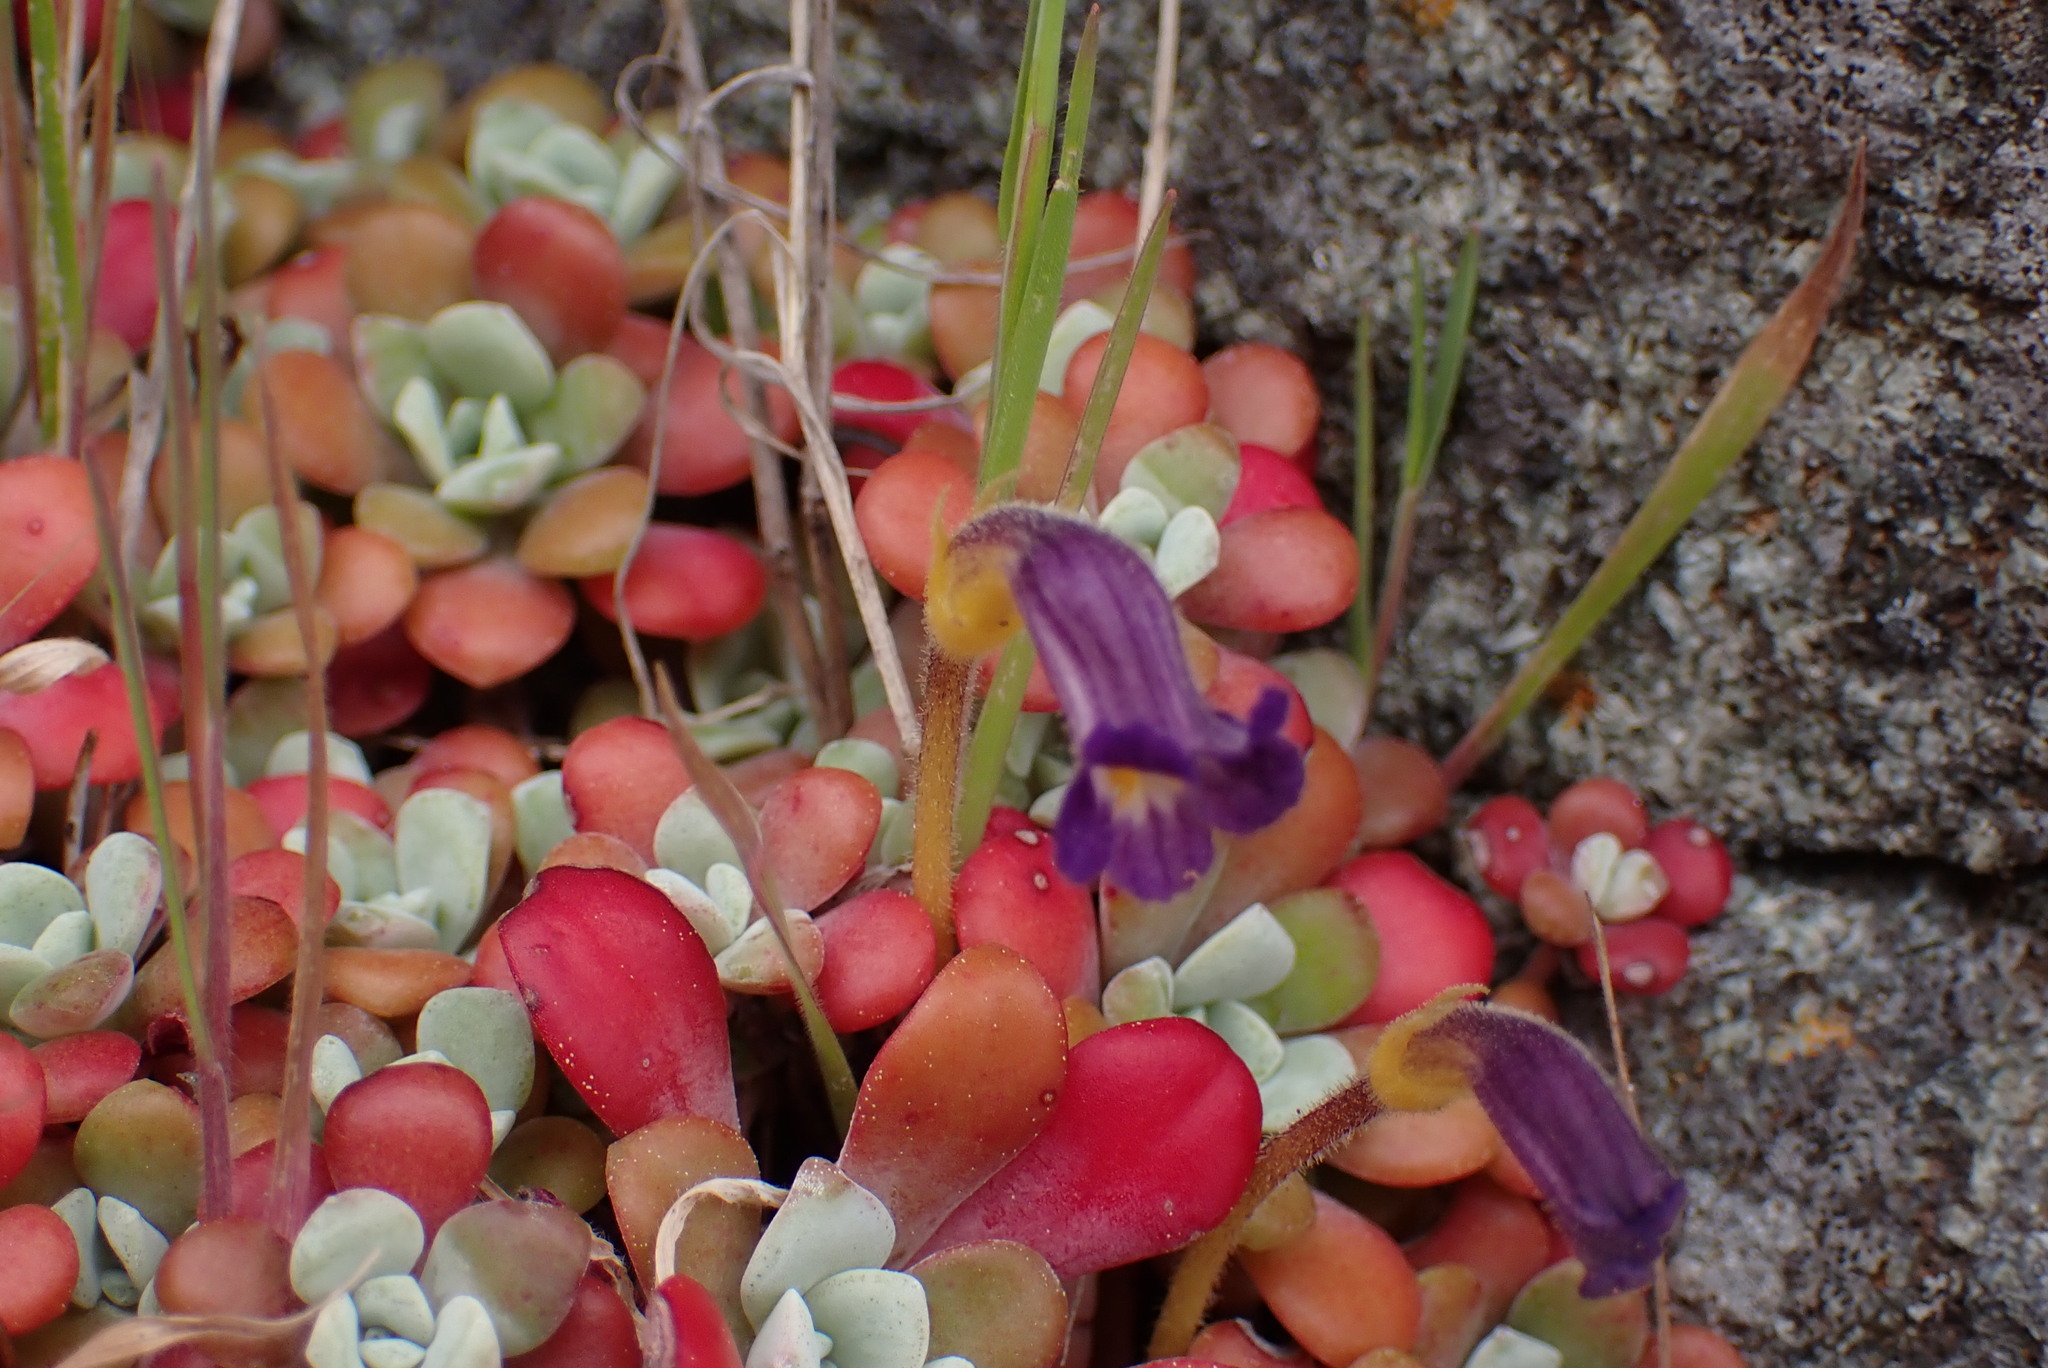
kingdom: Plantae
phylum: Tracheophyta
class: Magnoliopsida
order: Lamiales
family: Orobanchaceae
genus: Aphyllon
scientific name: Aphyllon uniflorum
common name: One-flowered broomrape
